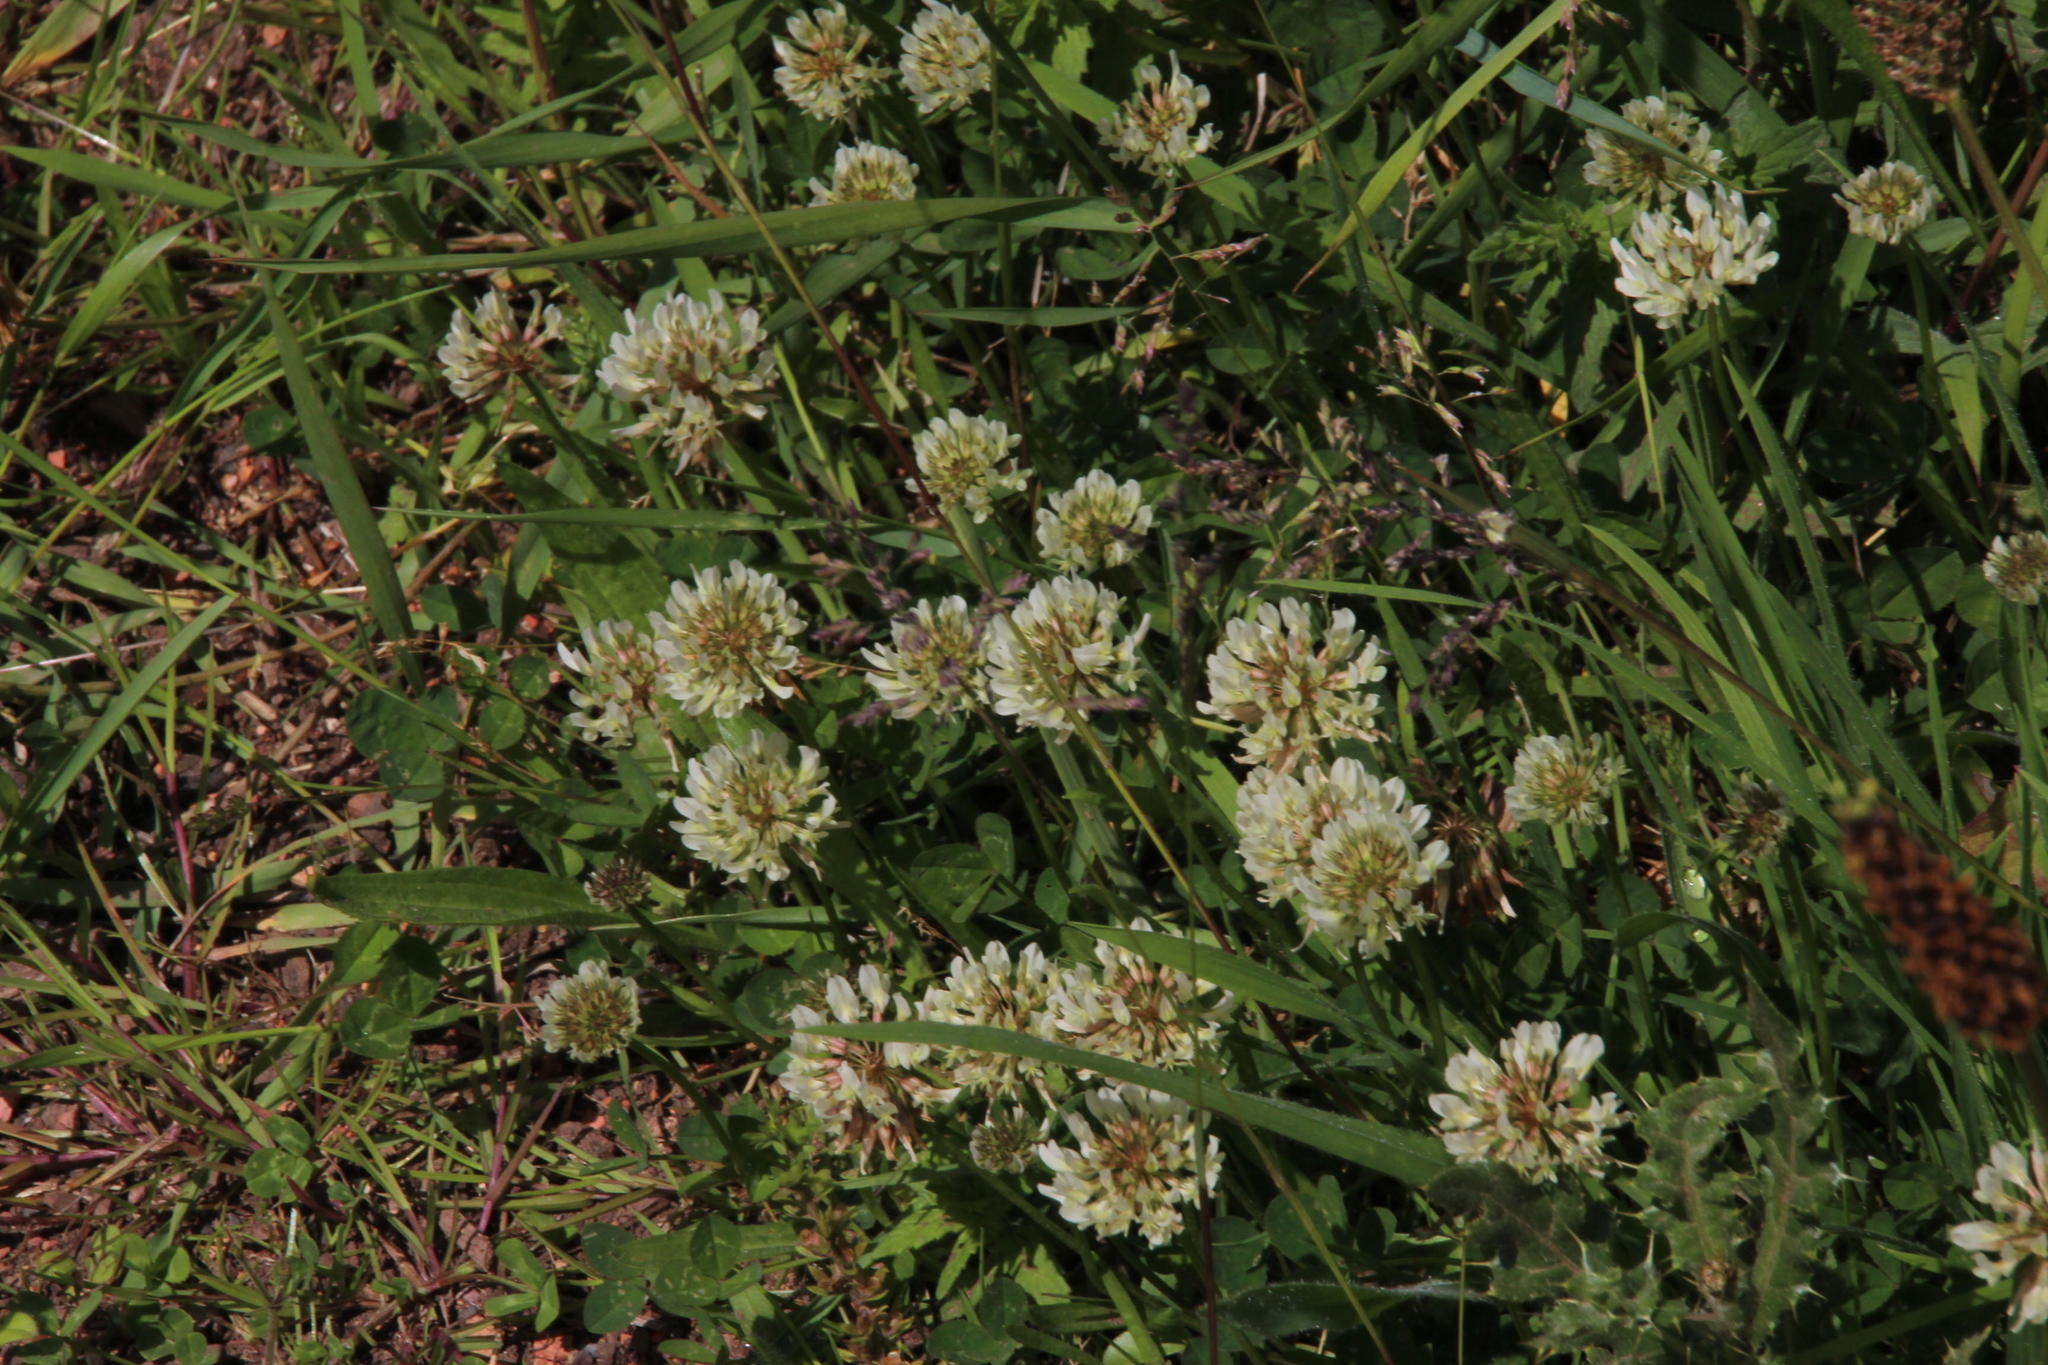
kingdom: Plantae
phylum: Tracheophyta
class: Magnoliopsida
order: Fabales
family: Fabaceae
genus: Trifolium
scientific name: Trifolium repens
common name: White clover
